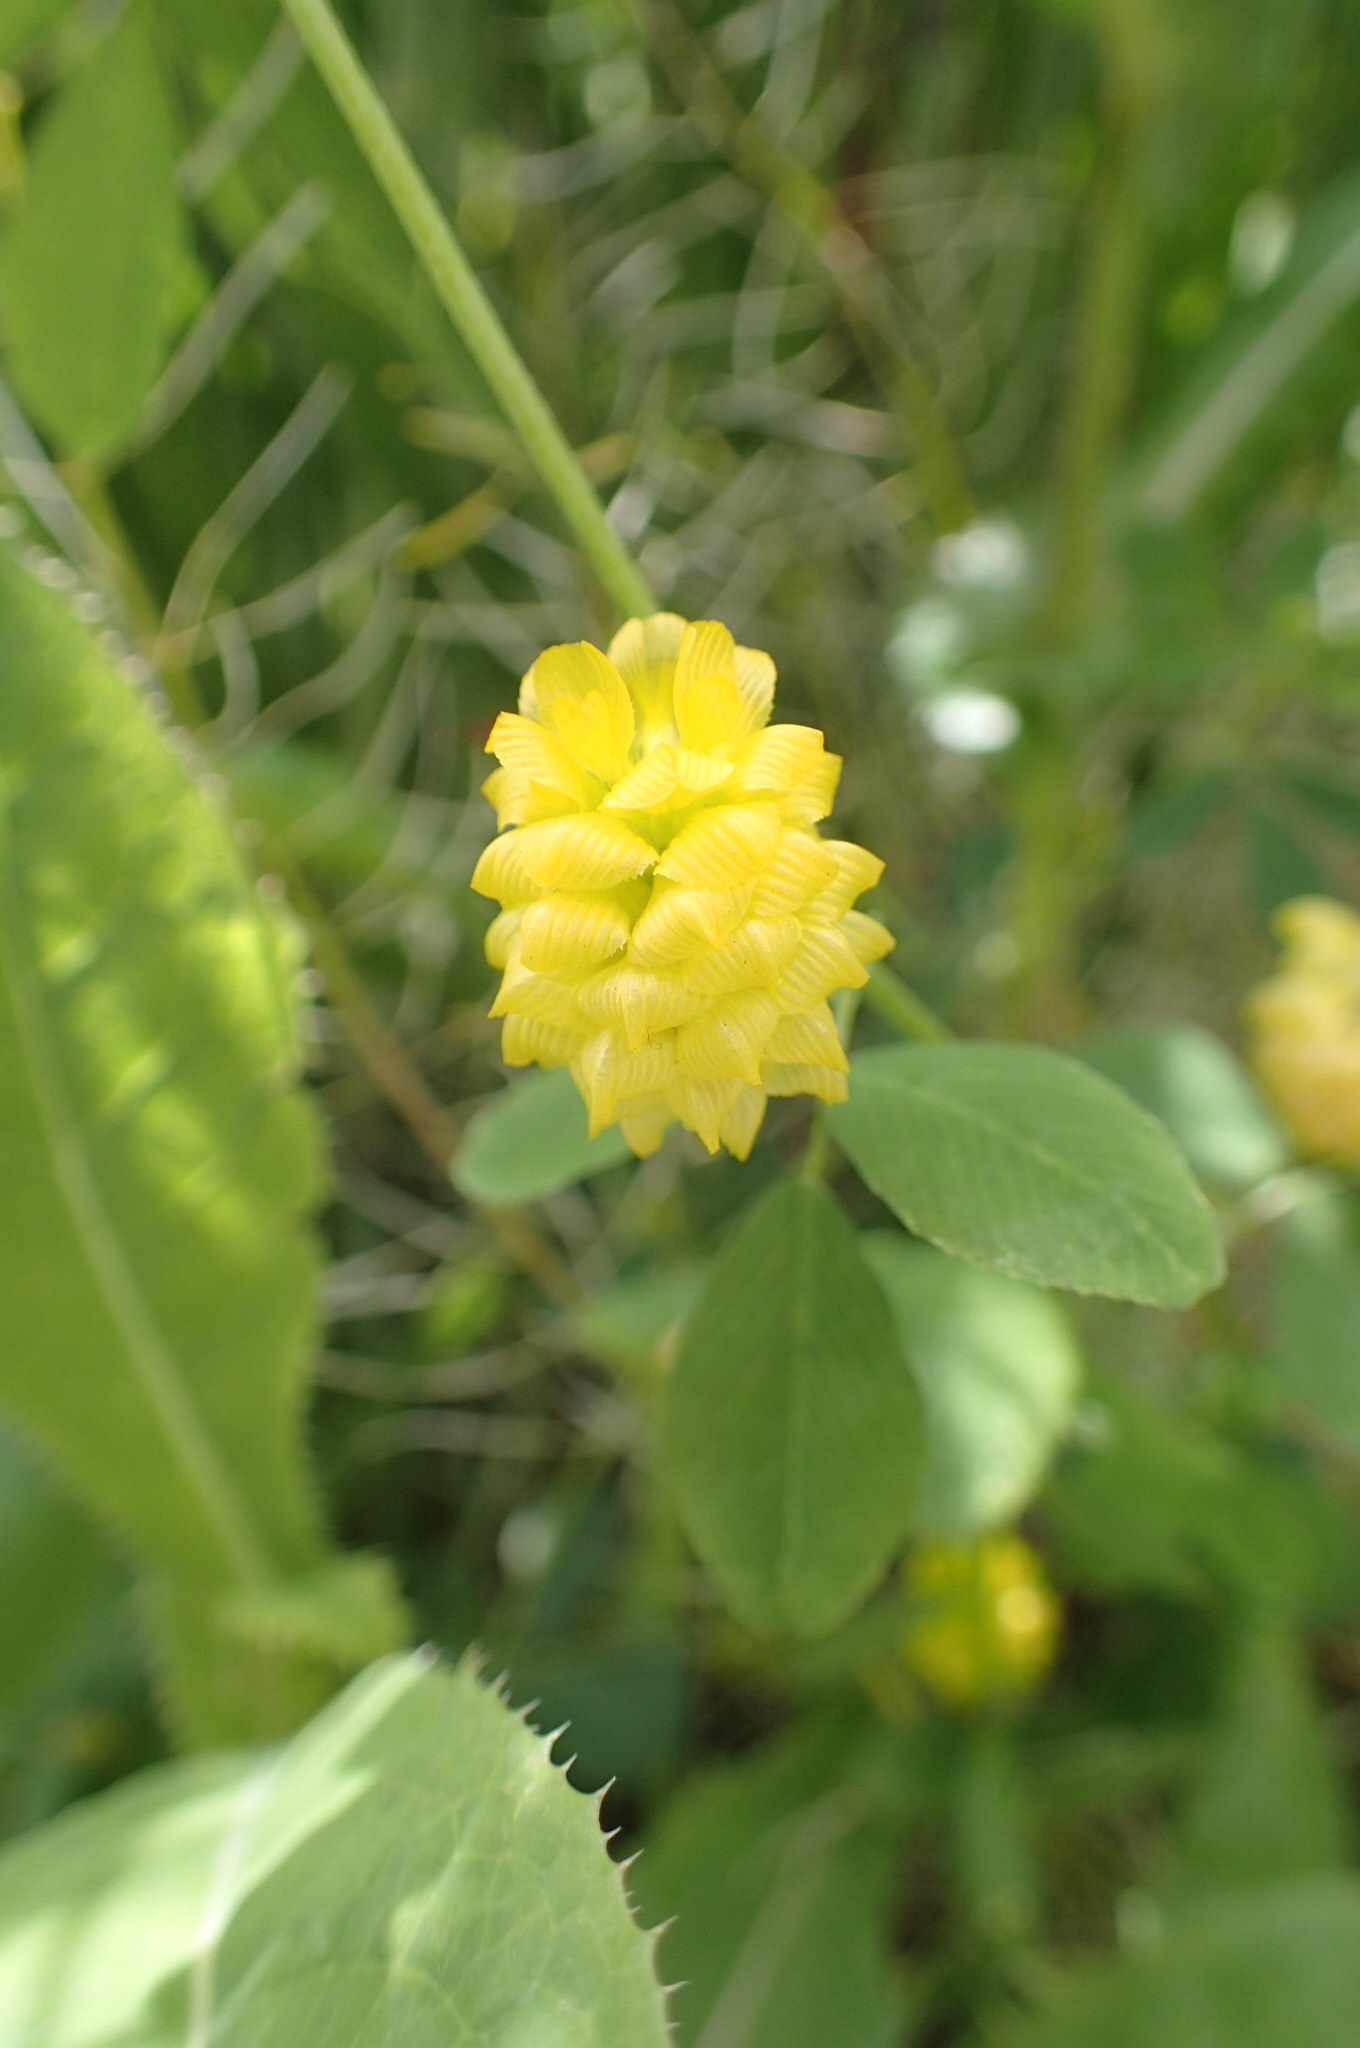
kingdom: Plantae
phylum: Tracheophyta
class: Magnoliopsida
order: Fabales
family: Fabaceae
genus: Trifolium
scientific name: Trifolium campestre
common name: Field clover
